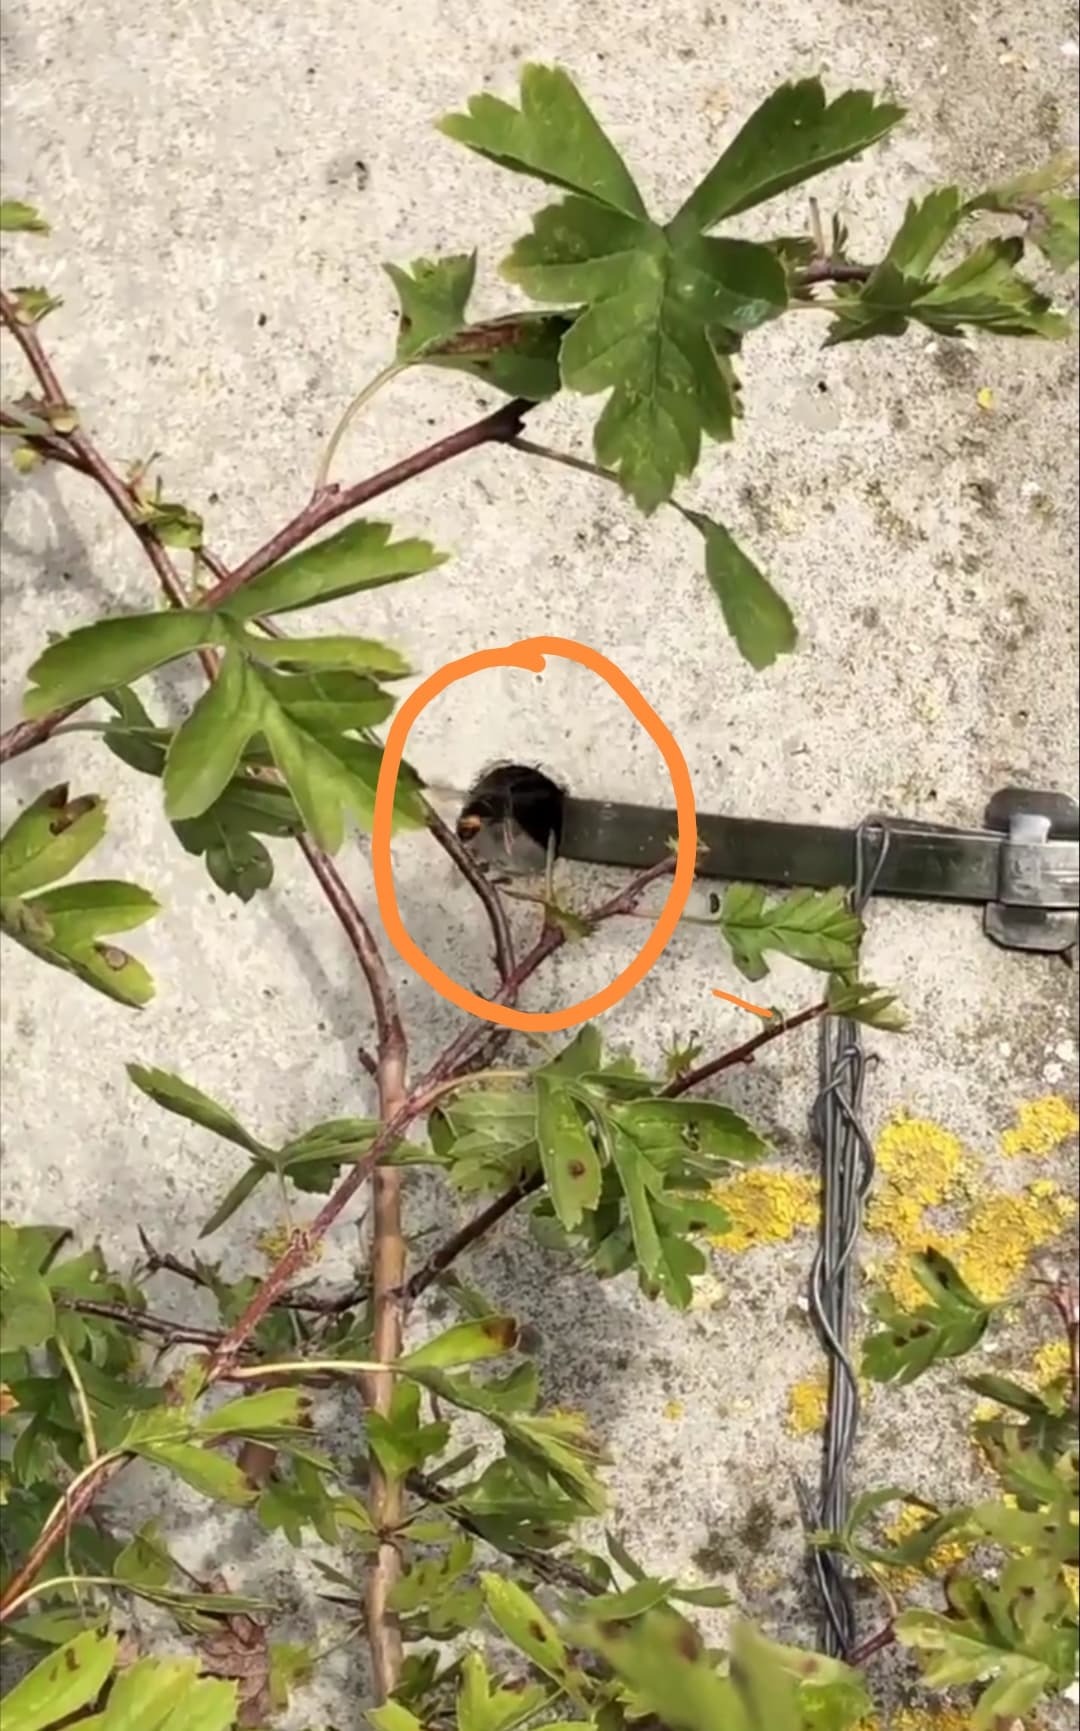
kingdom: Animalia
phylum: Arthropoda
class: Insecta
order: Hymenoptera
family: Vespidae
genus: Vespa
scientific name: Vespa velutina
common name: Asian hornet
